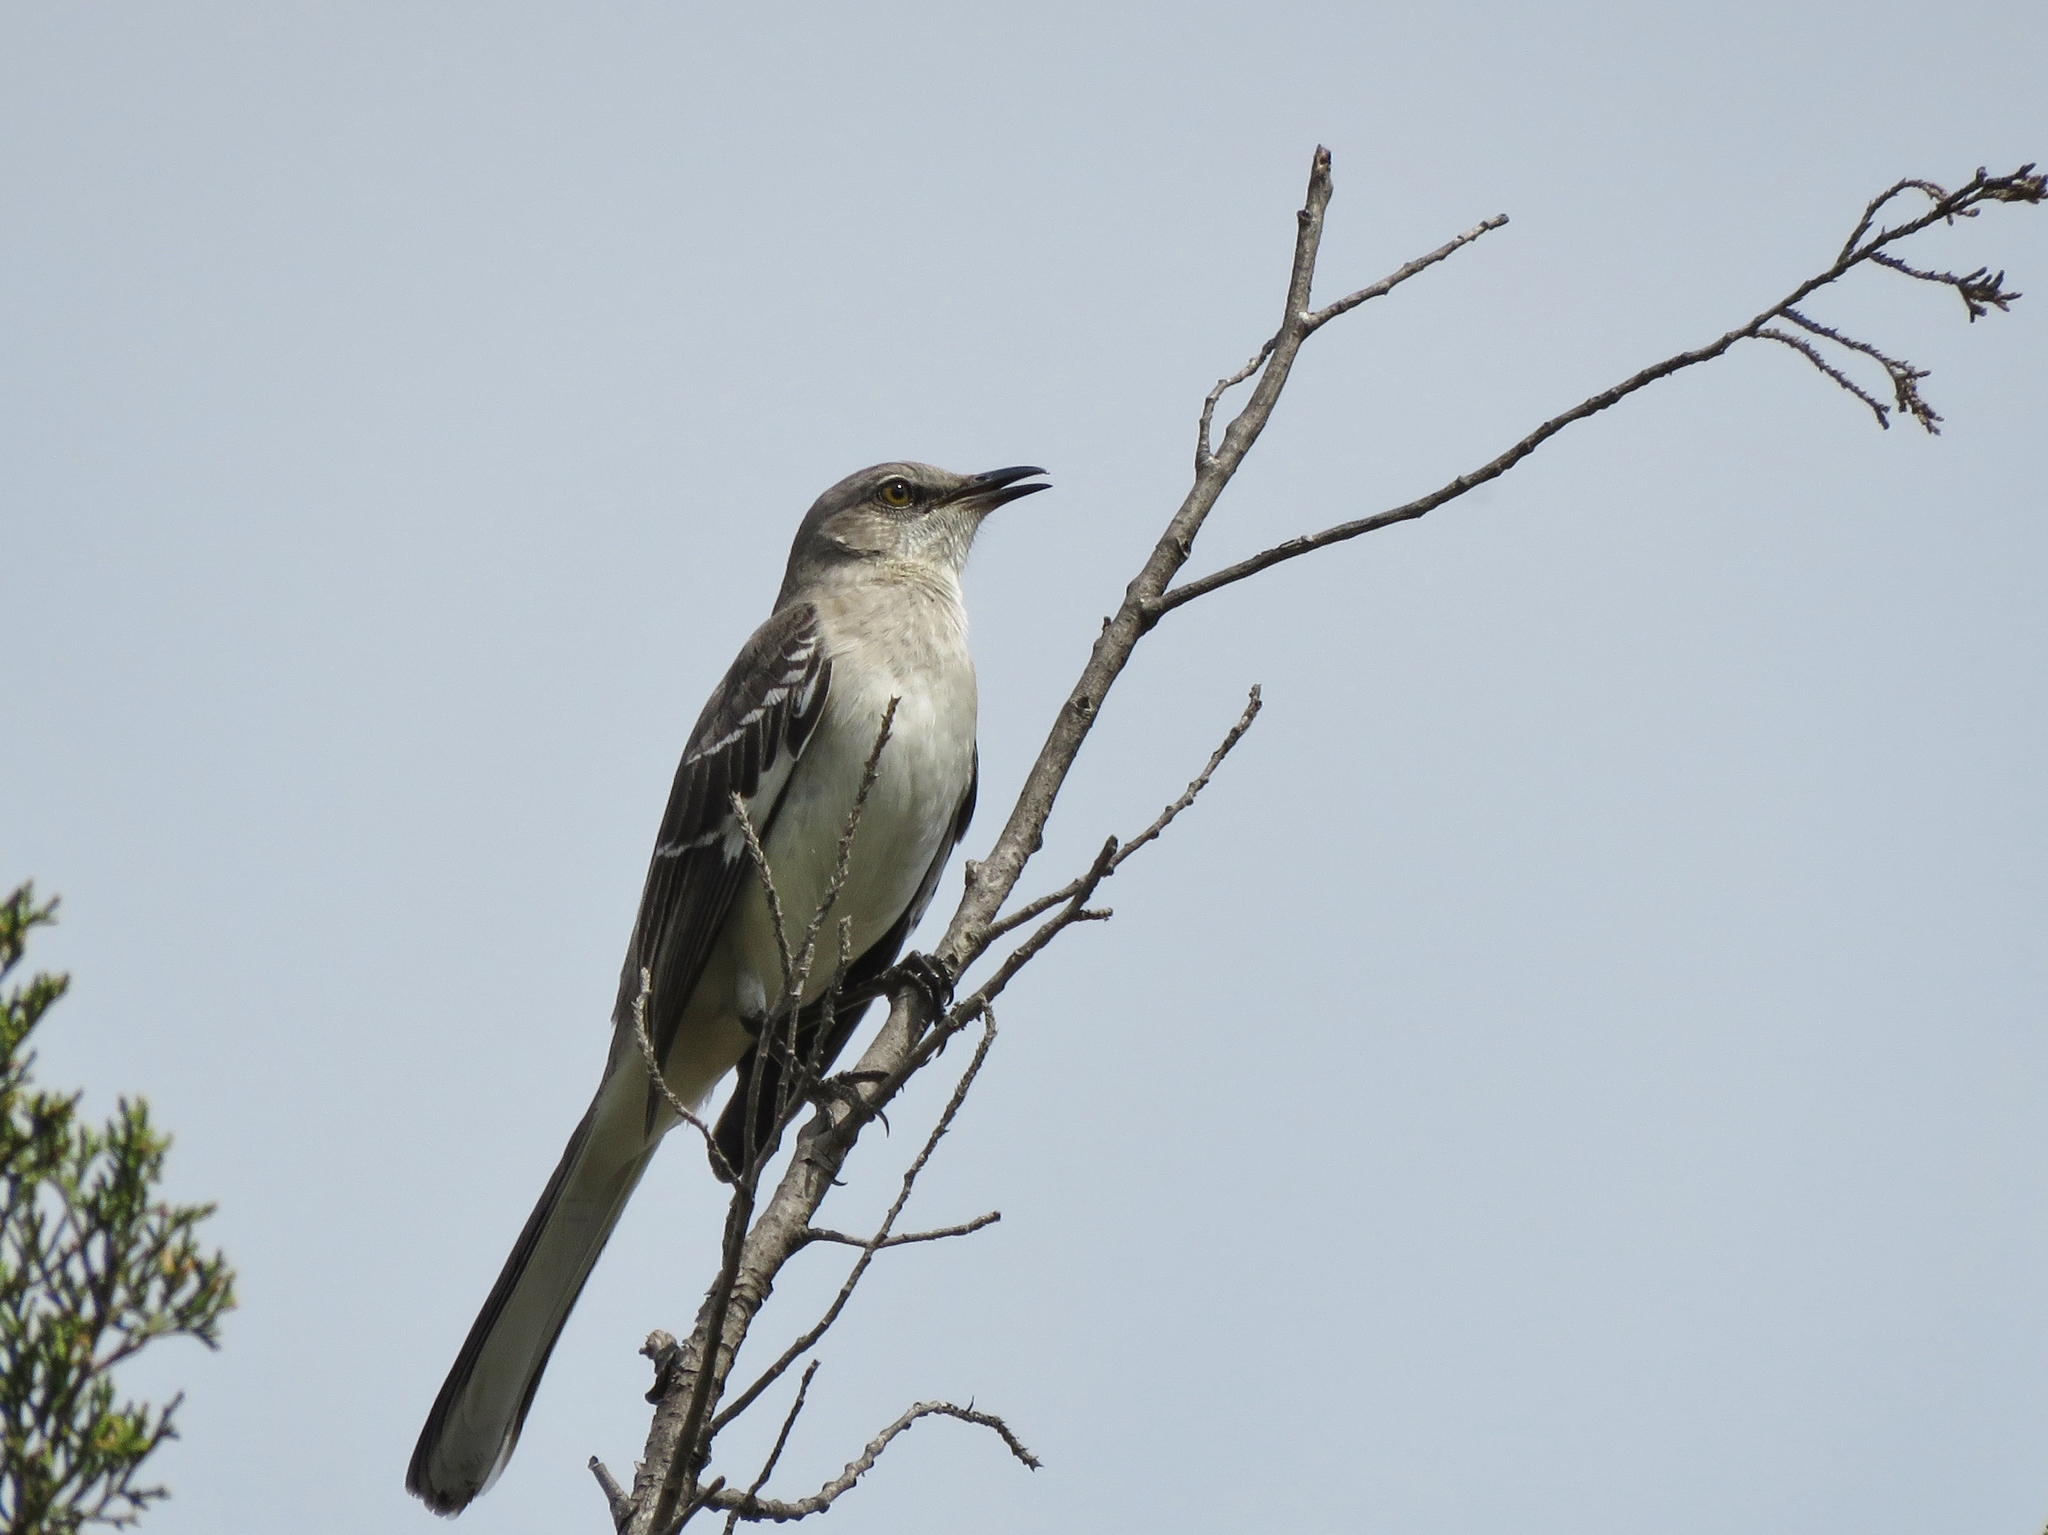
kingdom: Animalia
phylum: Chordata
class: Aves
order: Passeriformes
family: Mimidae
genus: Mimus
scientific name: Mimus polyglottos
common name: Northern mockingbird
